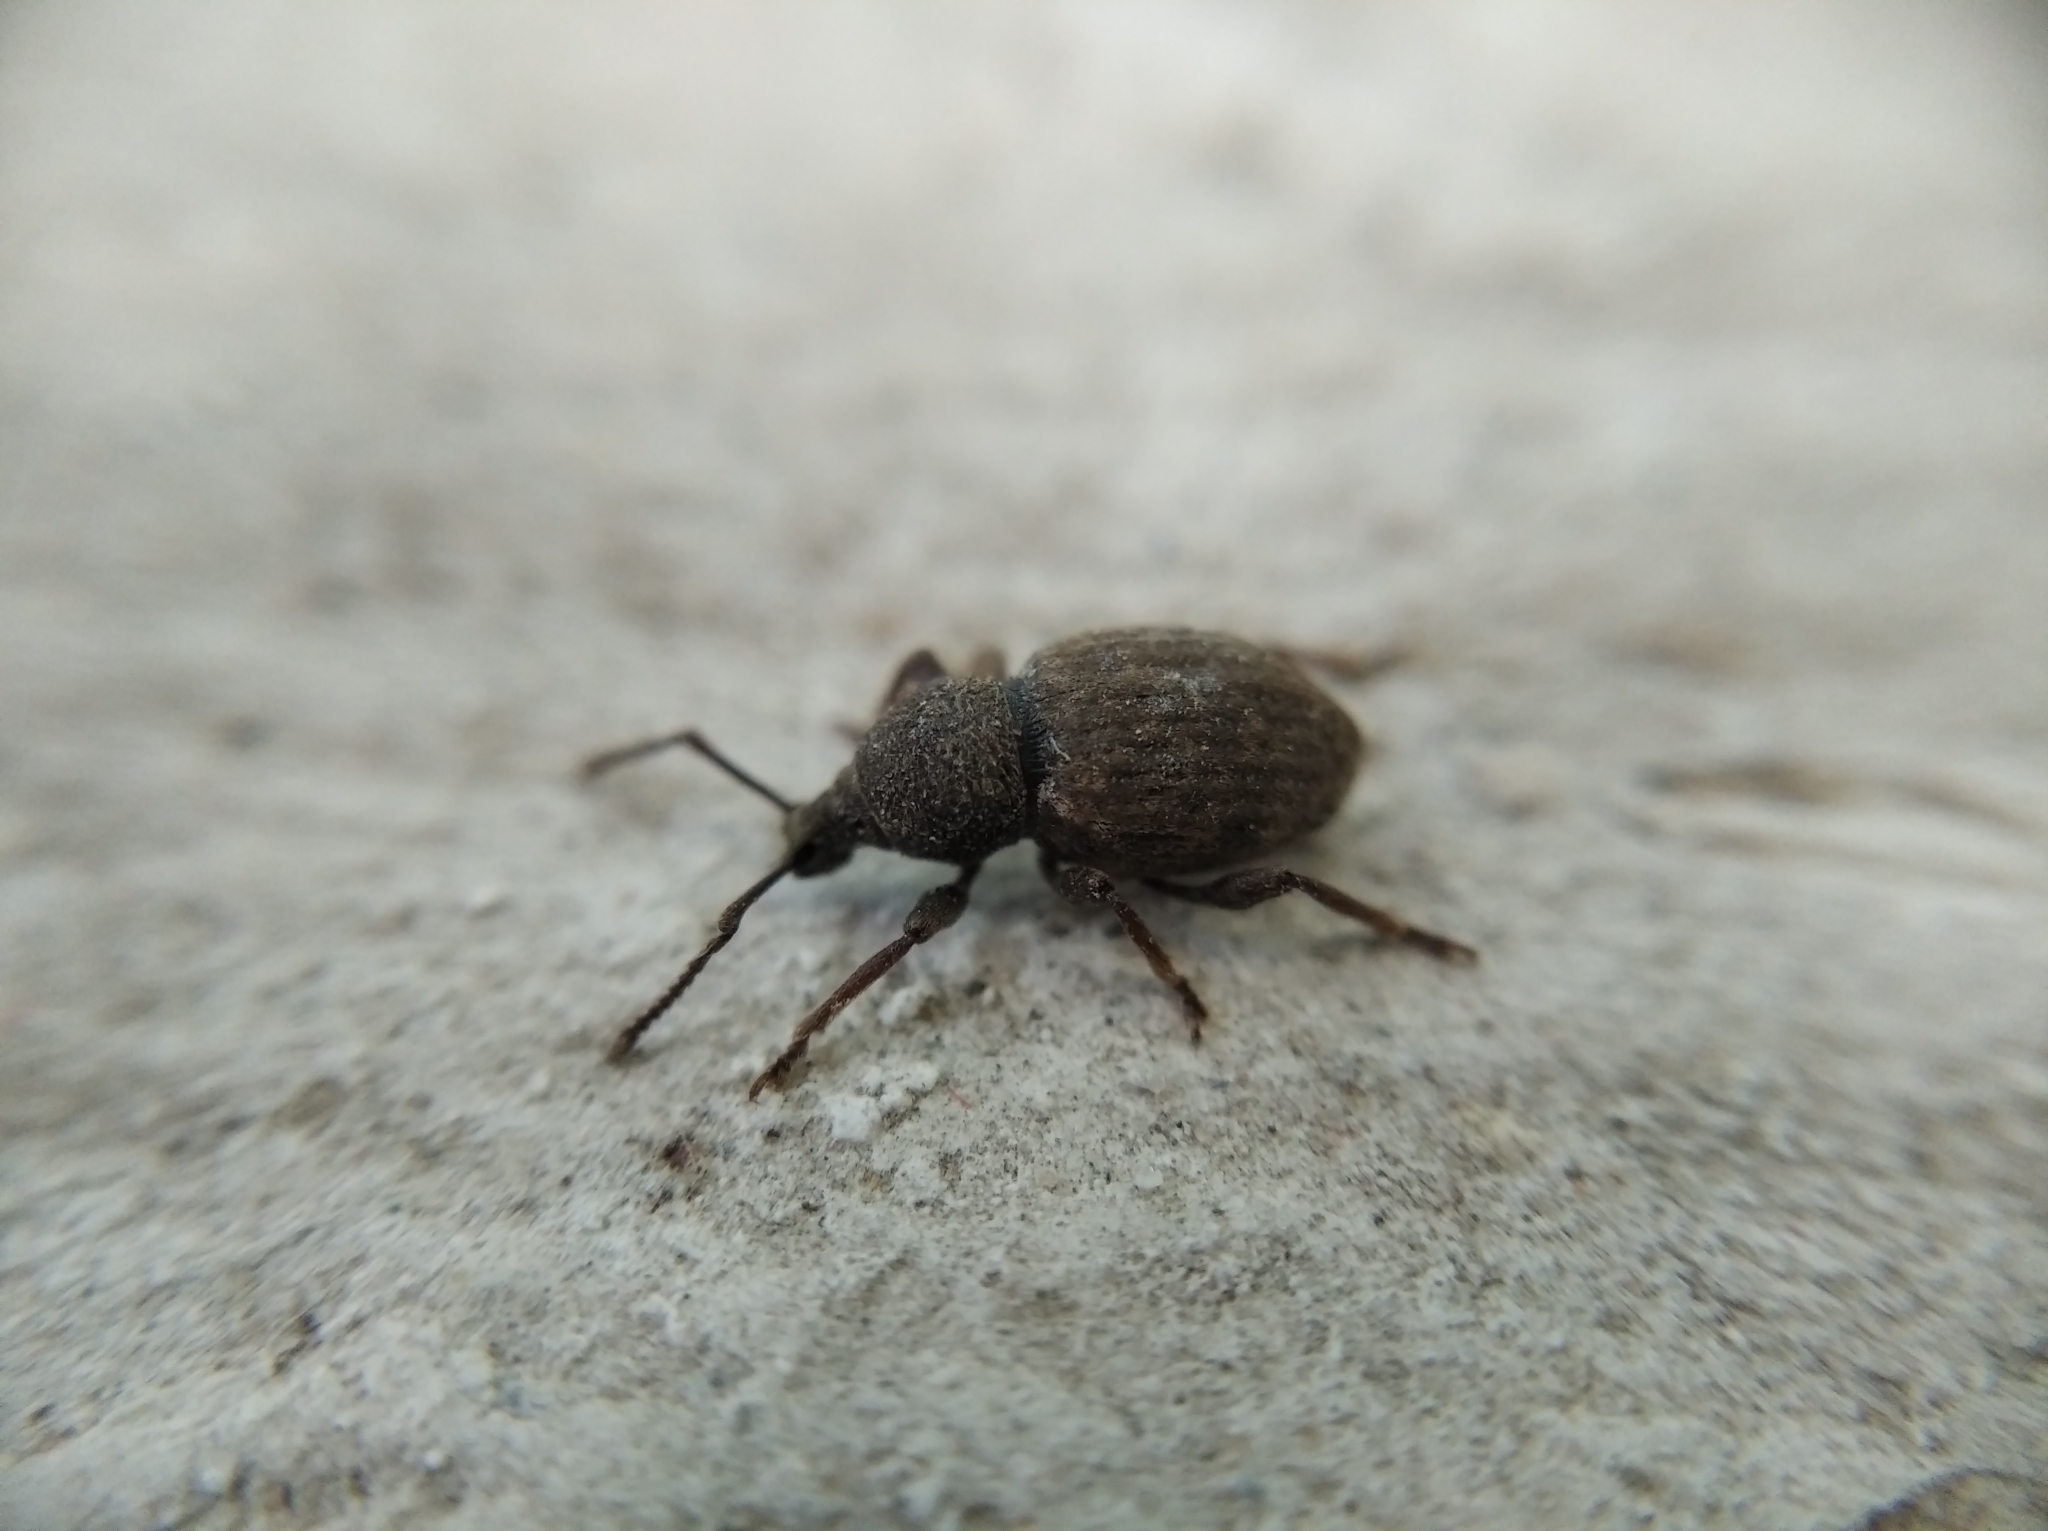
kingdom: Animalia
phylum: Arthropoda
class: Insecta
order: Coleoptera
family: Curculionidae
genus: Otiorhynchus
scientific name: Otiorhynchus raucus
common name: Weevil
